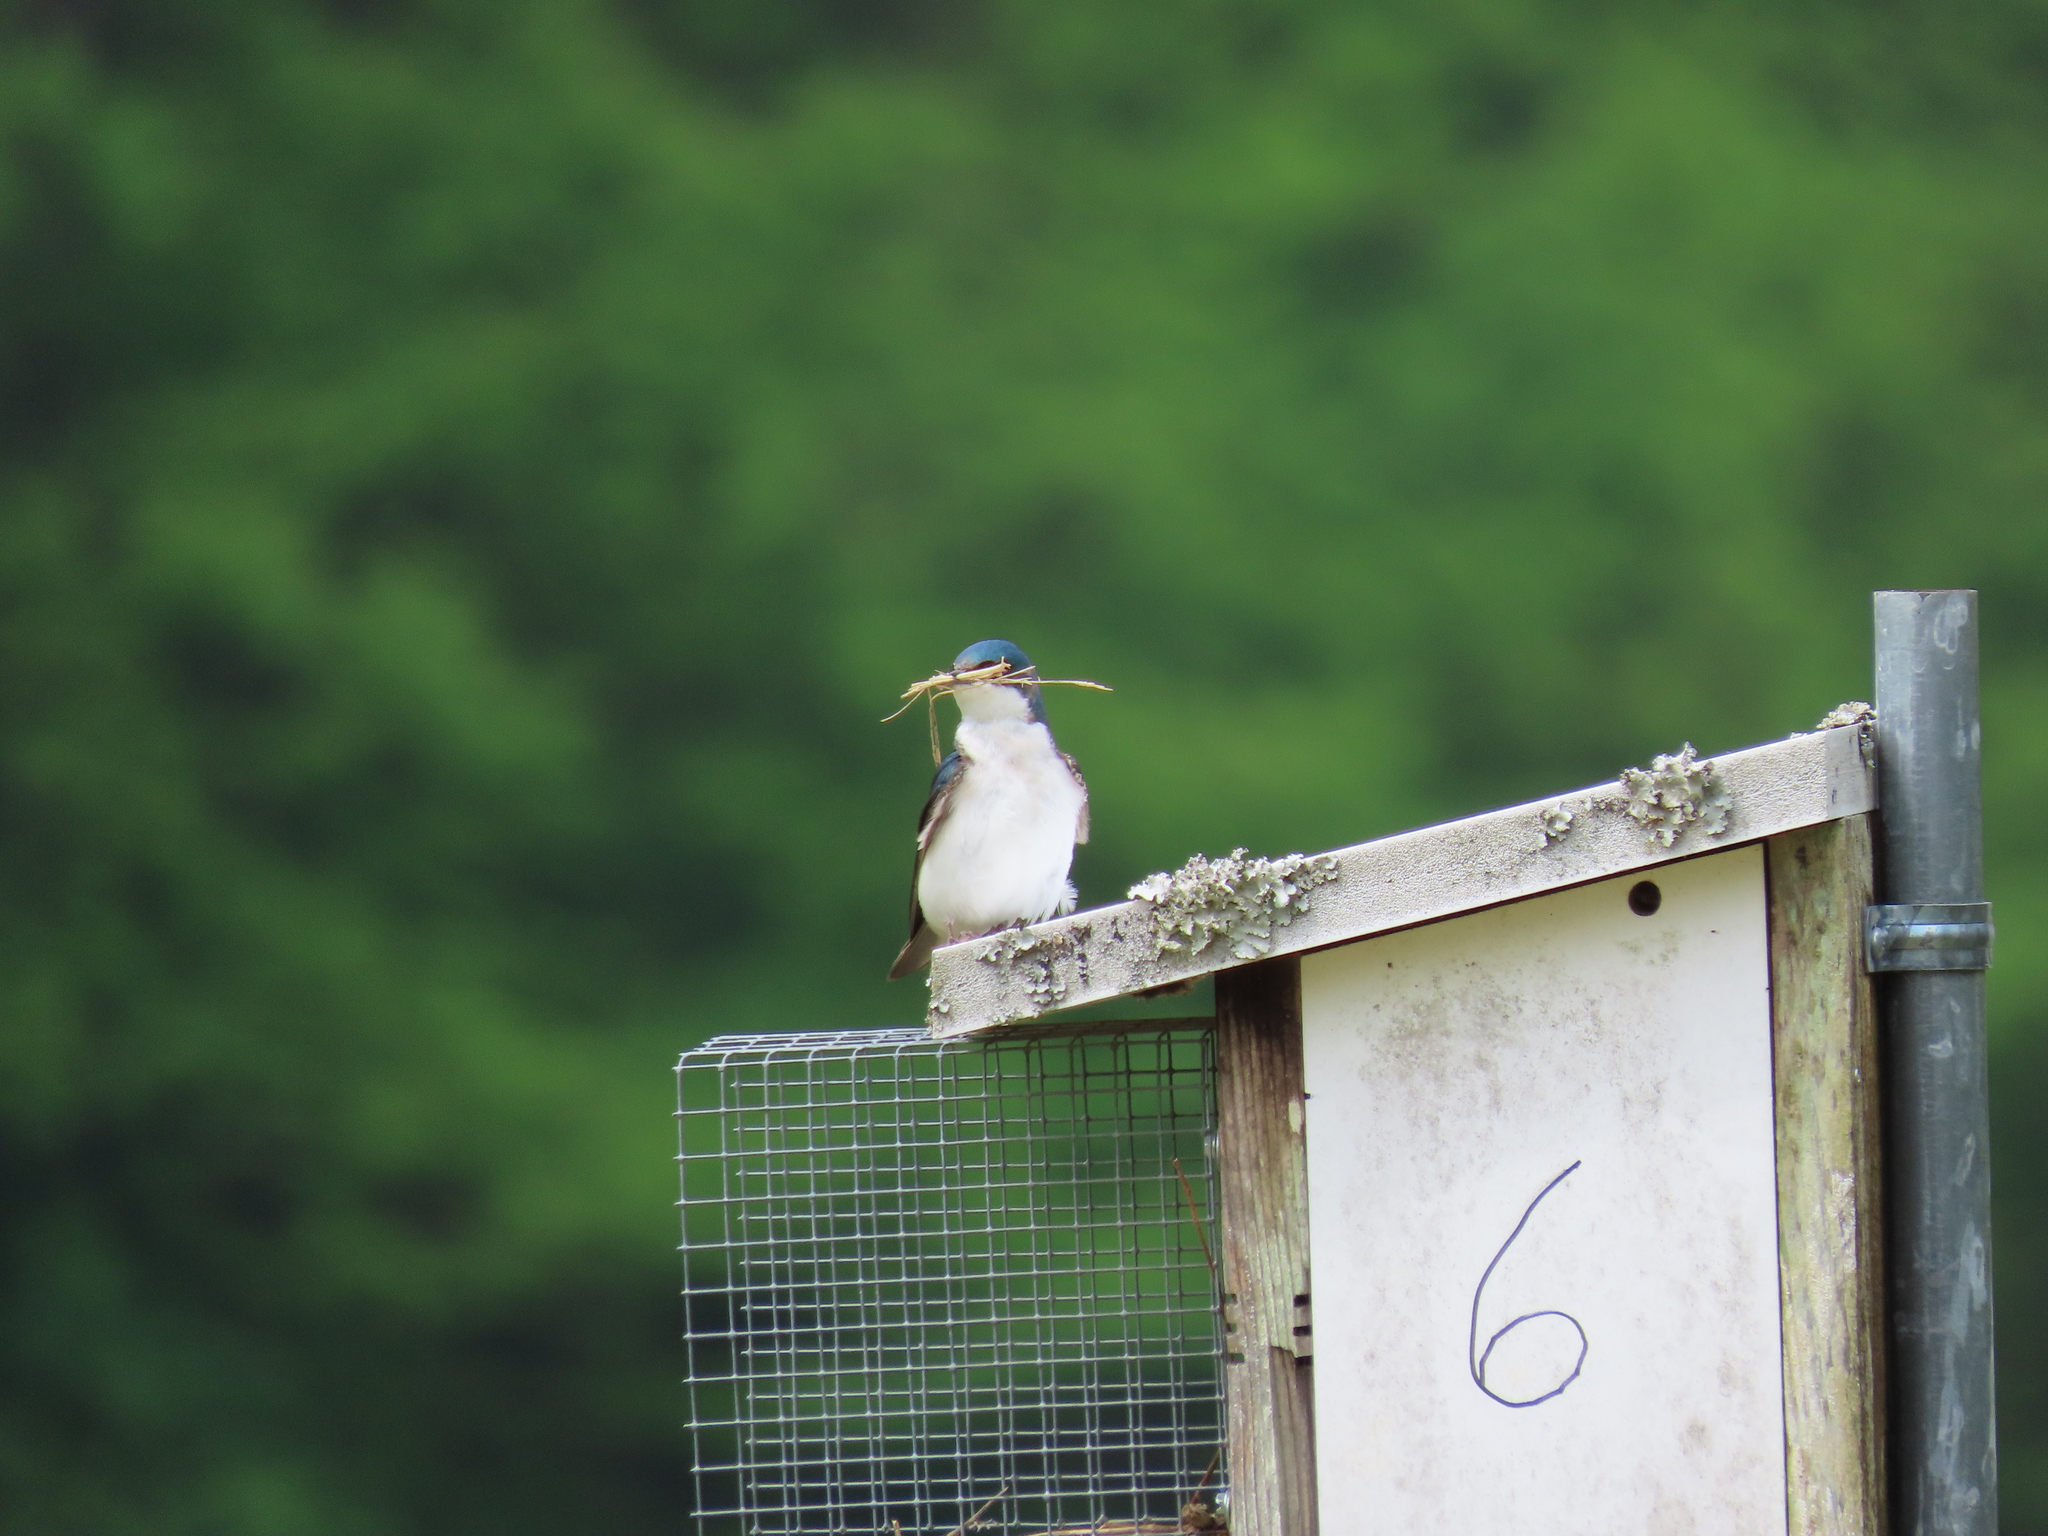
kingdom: Animalia
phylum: Chordata
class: Aves
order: Passeriformes
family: Hirundinidae
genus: Tachycineta
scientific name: Tachycineta bicolor
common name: Tree swallow
